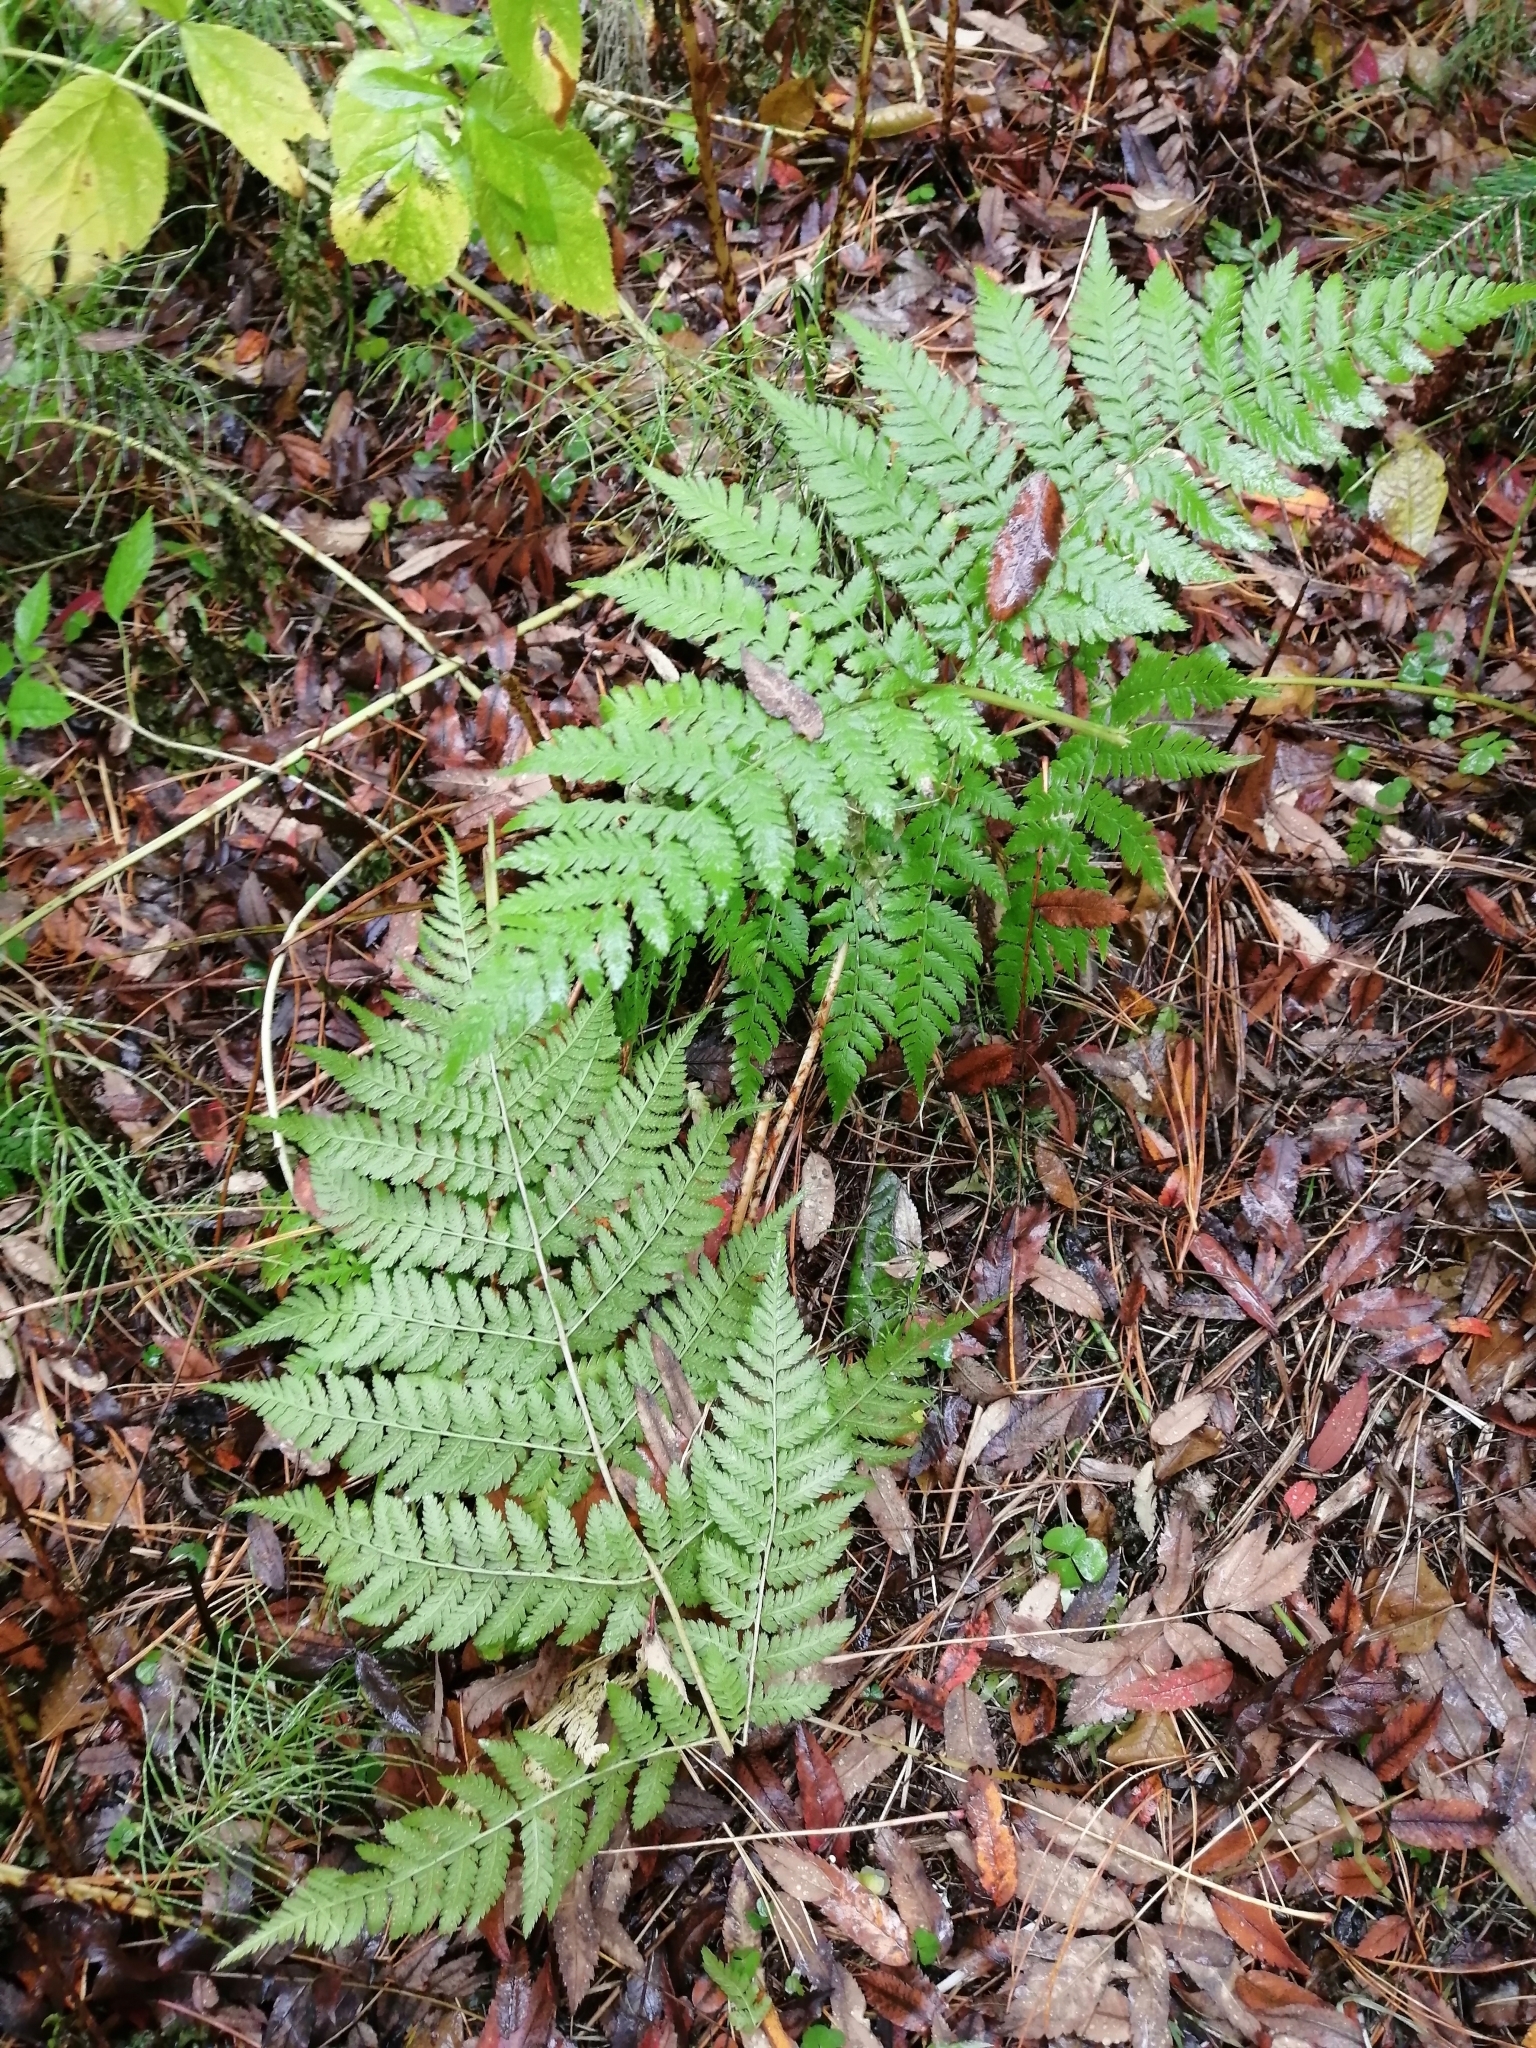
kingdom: Plantae
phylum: Tracheophyta
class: Polypodiopsida
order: Polypodiales
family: Dryopteridaceae
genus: Dryopteris
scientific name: Dryopteris expansa
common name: Northern buckler fern
